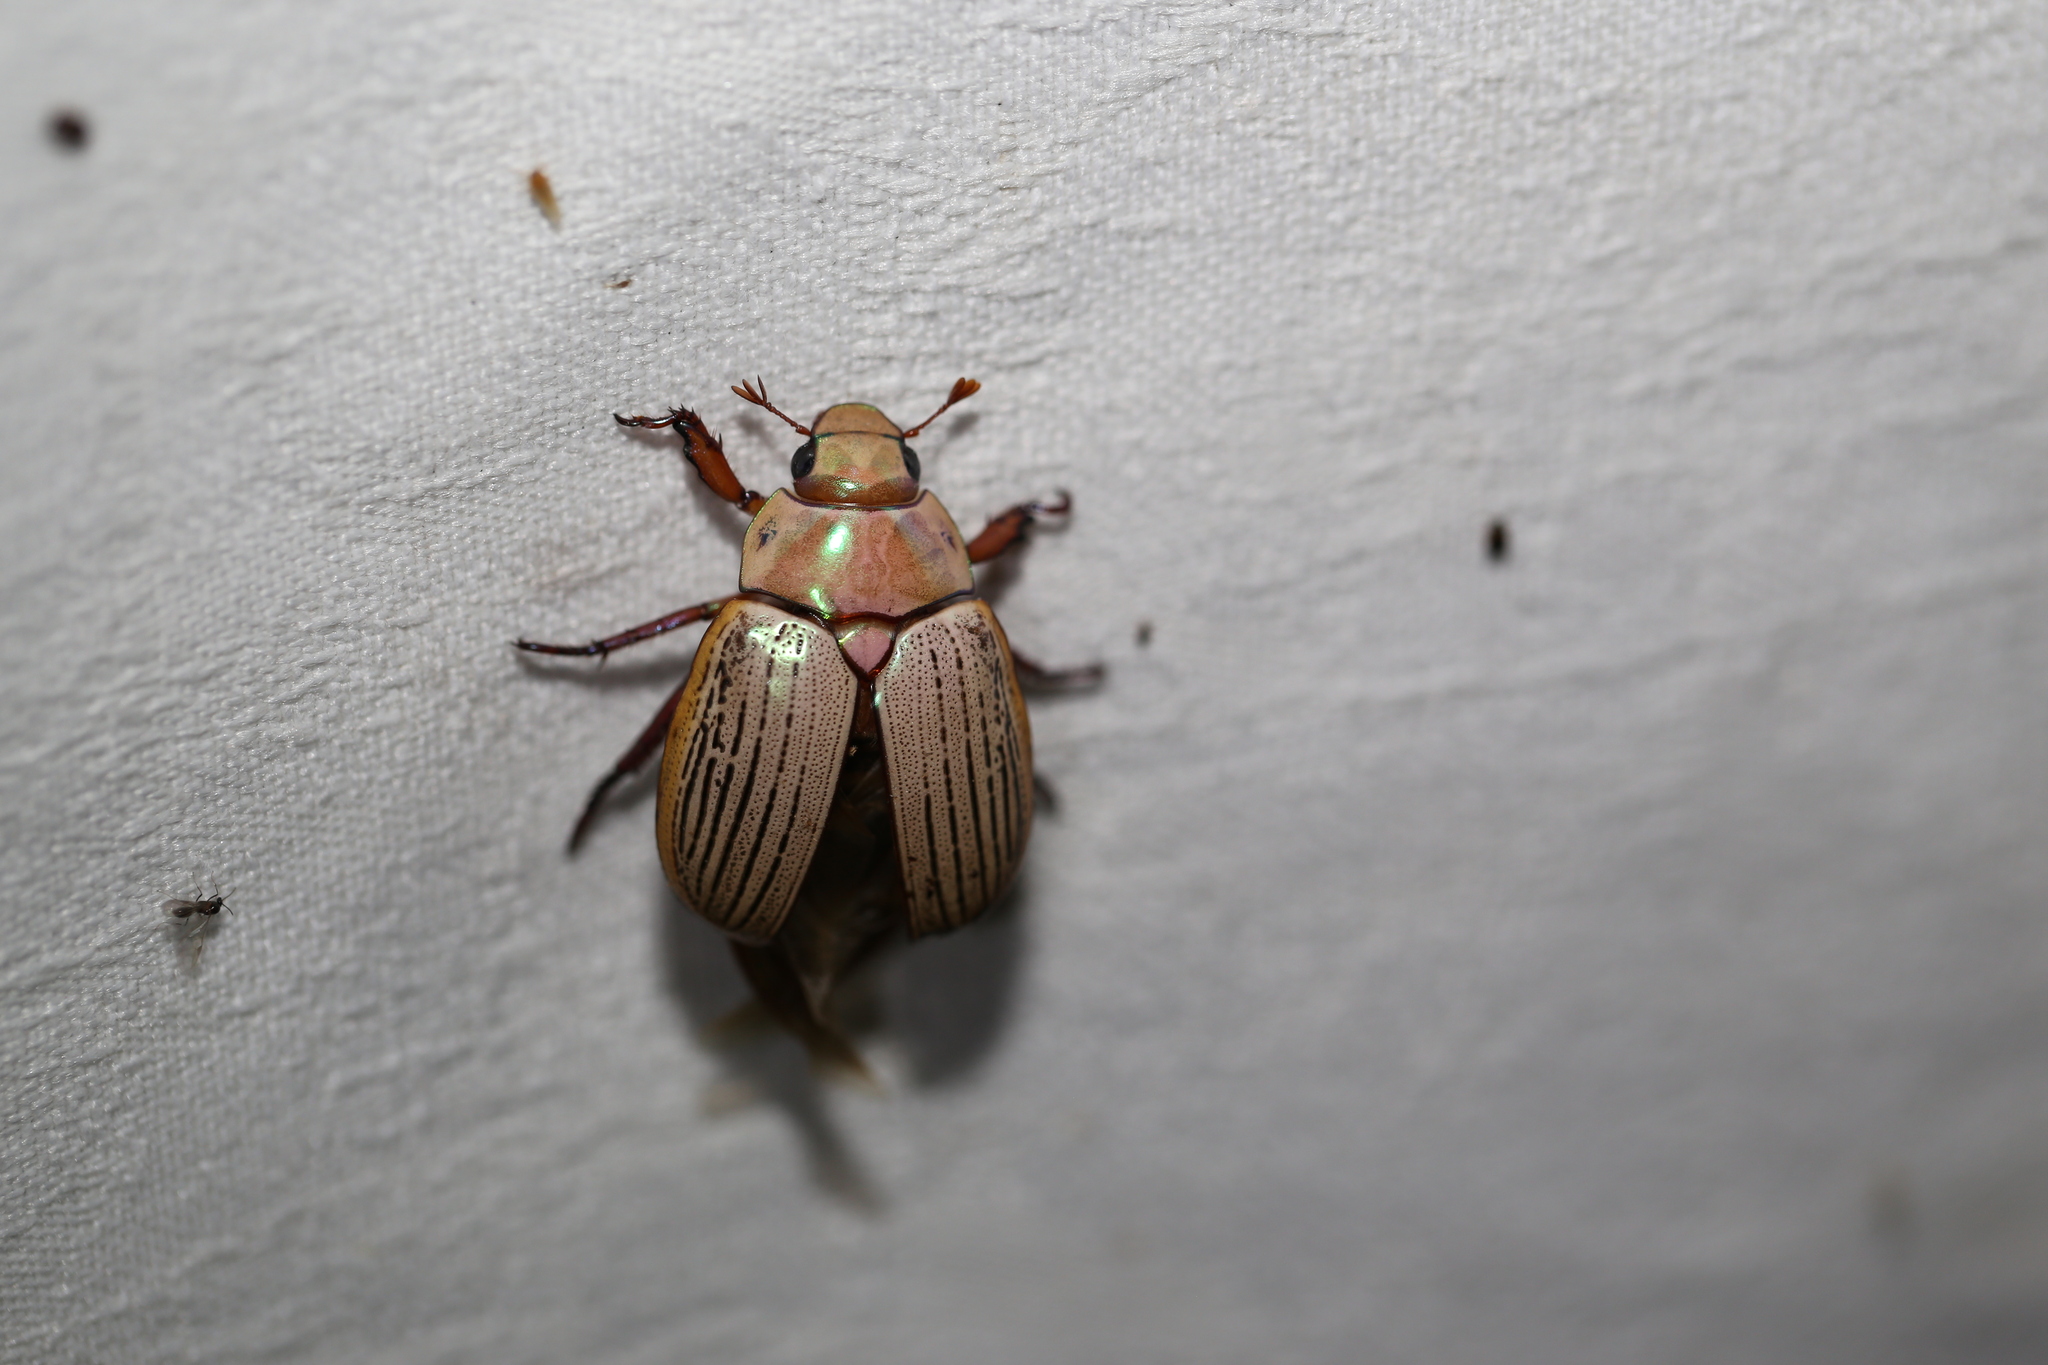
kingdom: Animalia
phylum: Arthropoda
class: Insecta
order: Coleoptera
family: Scarabaeidae
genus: Anoplognathus
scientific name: Anoplognathus boisduvali
